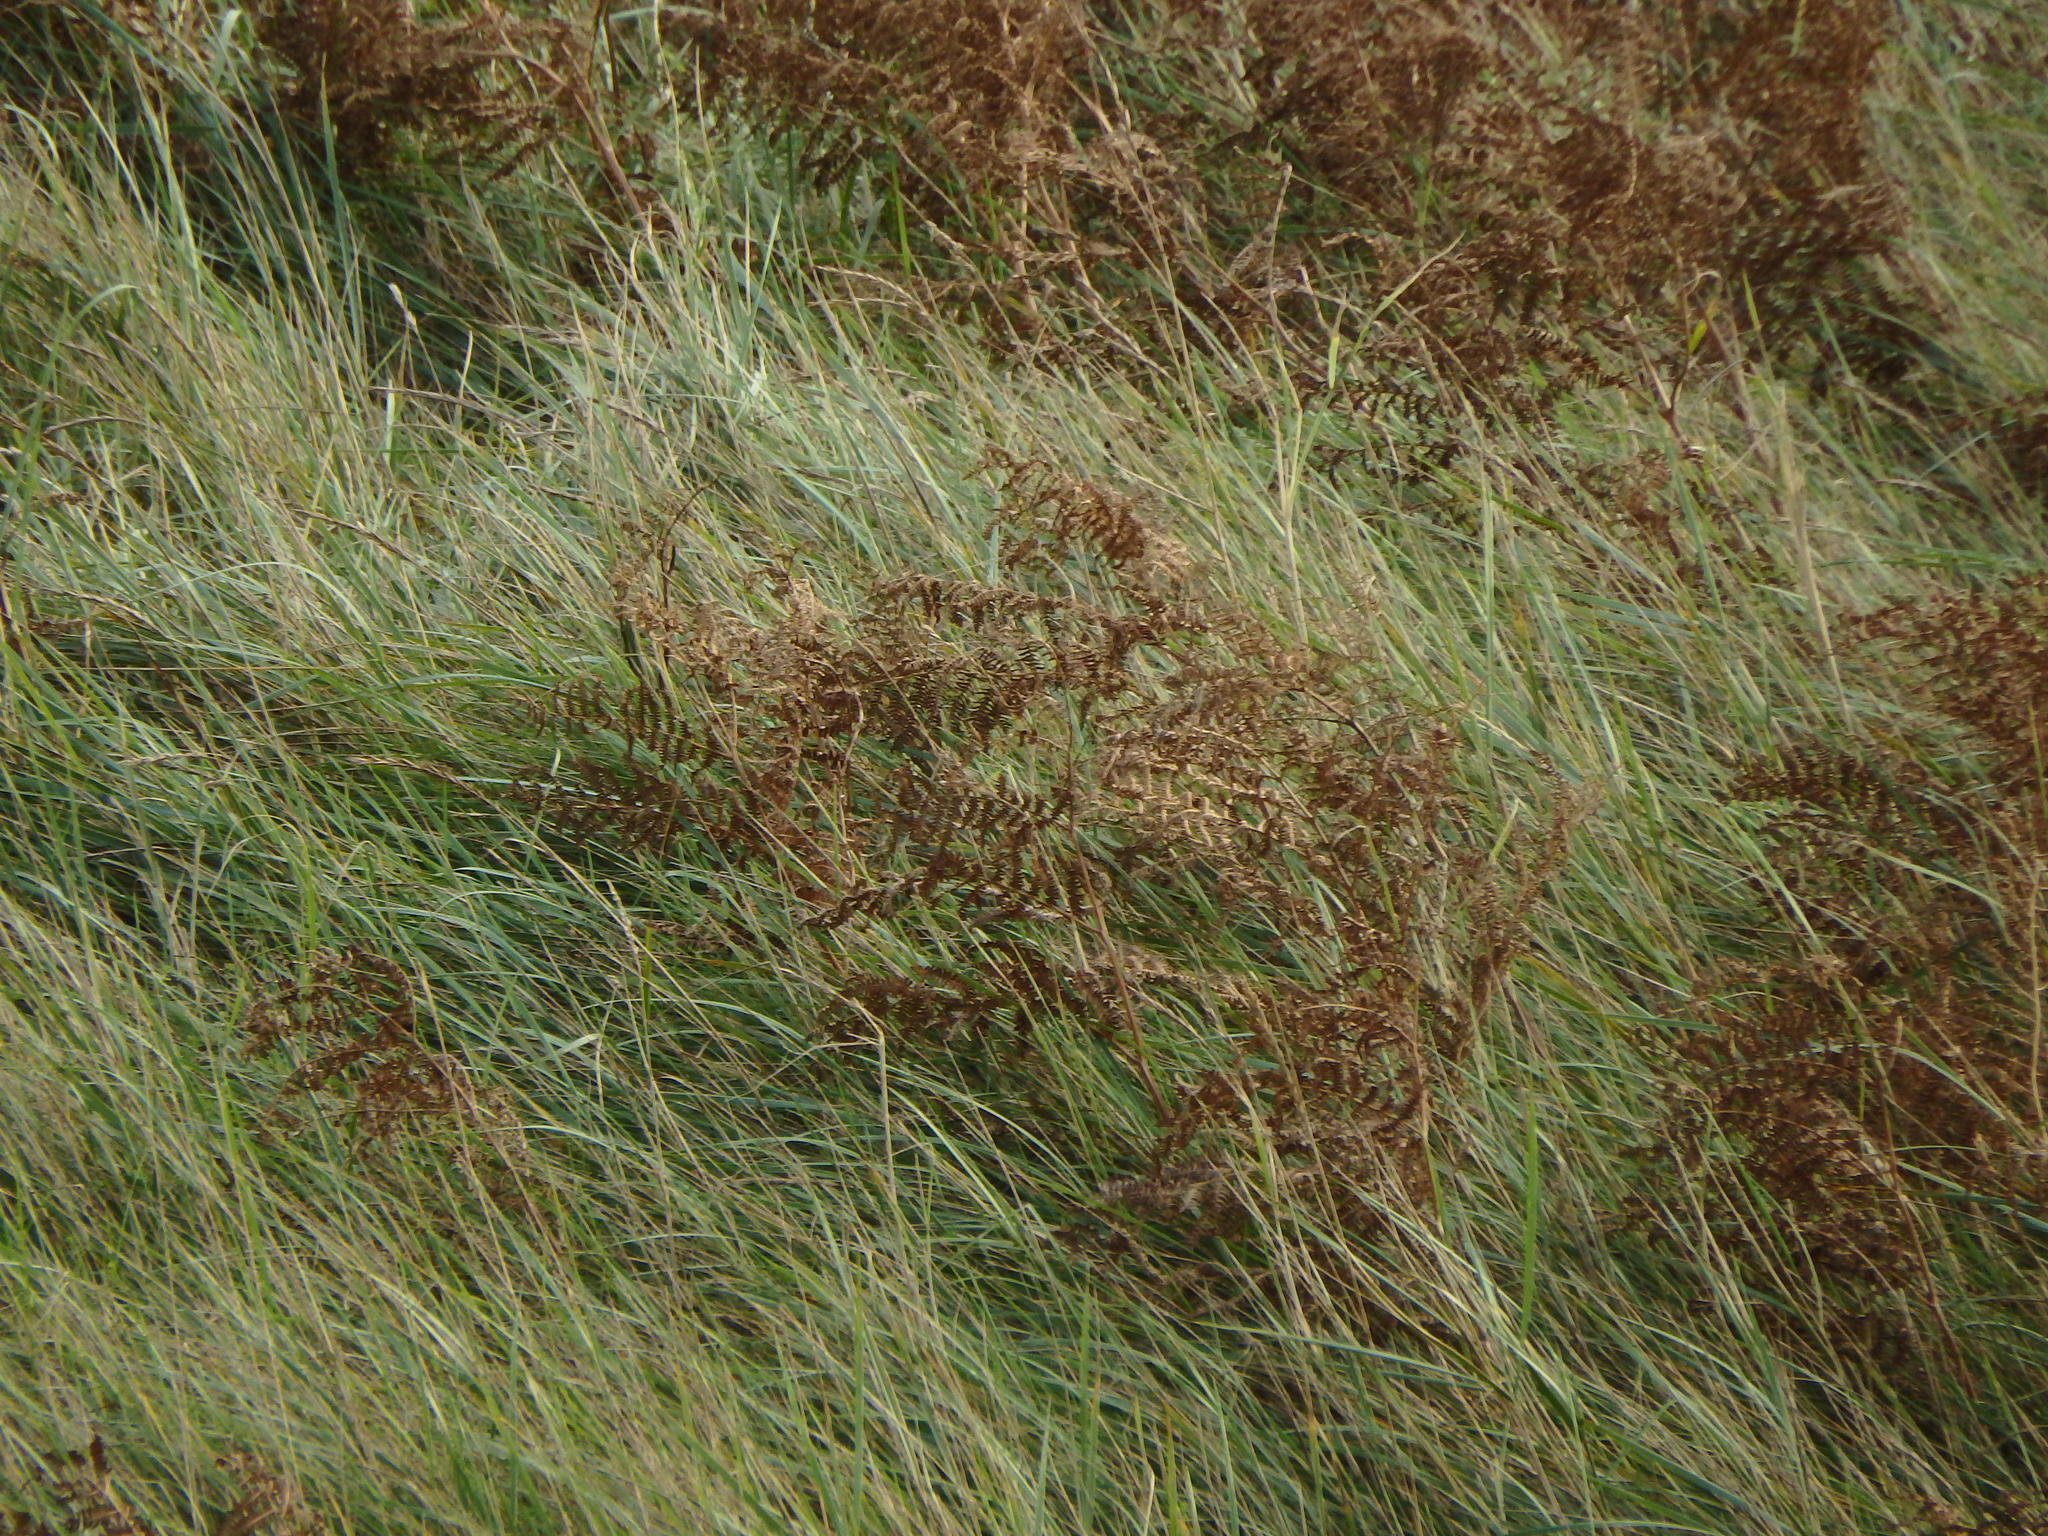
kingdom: Plantae
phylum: Tracheophyta
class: Polypodiopsida
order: Polypodiales
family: Dennstaedtiaceae
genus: Pteridium
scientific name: Pteridium aquilinum
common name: Bracken
